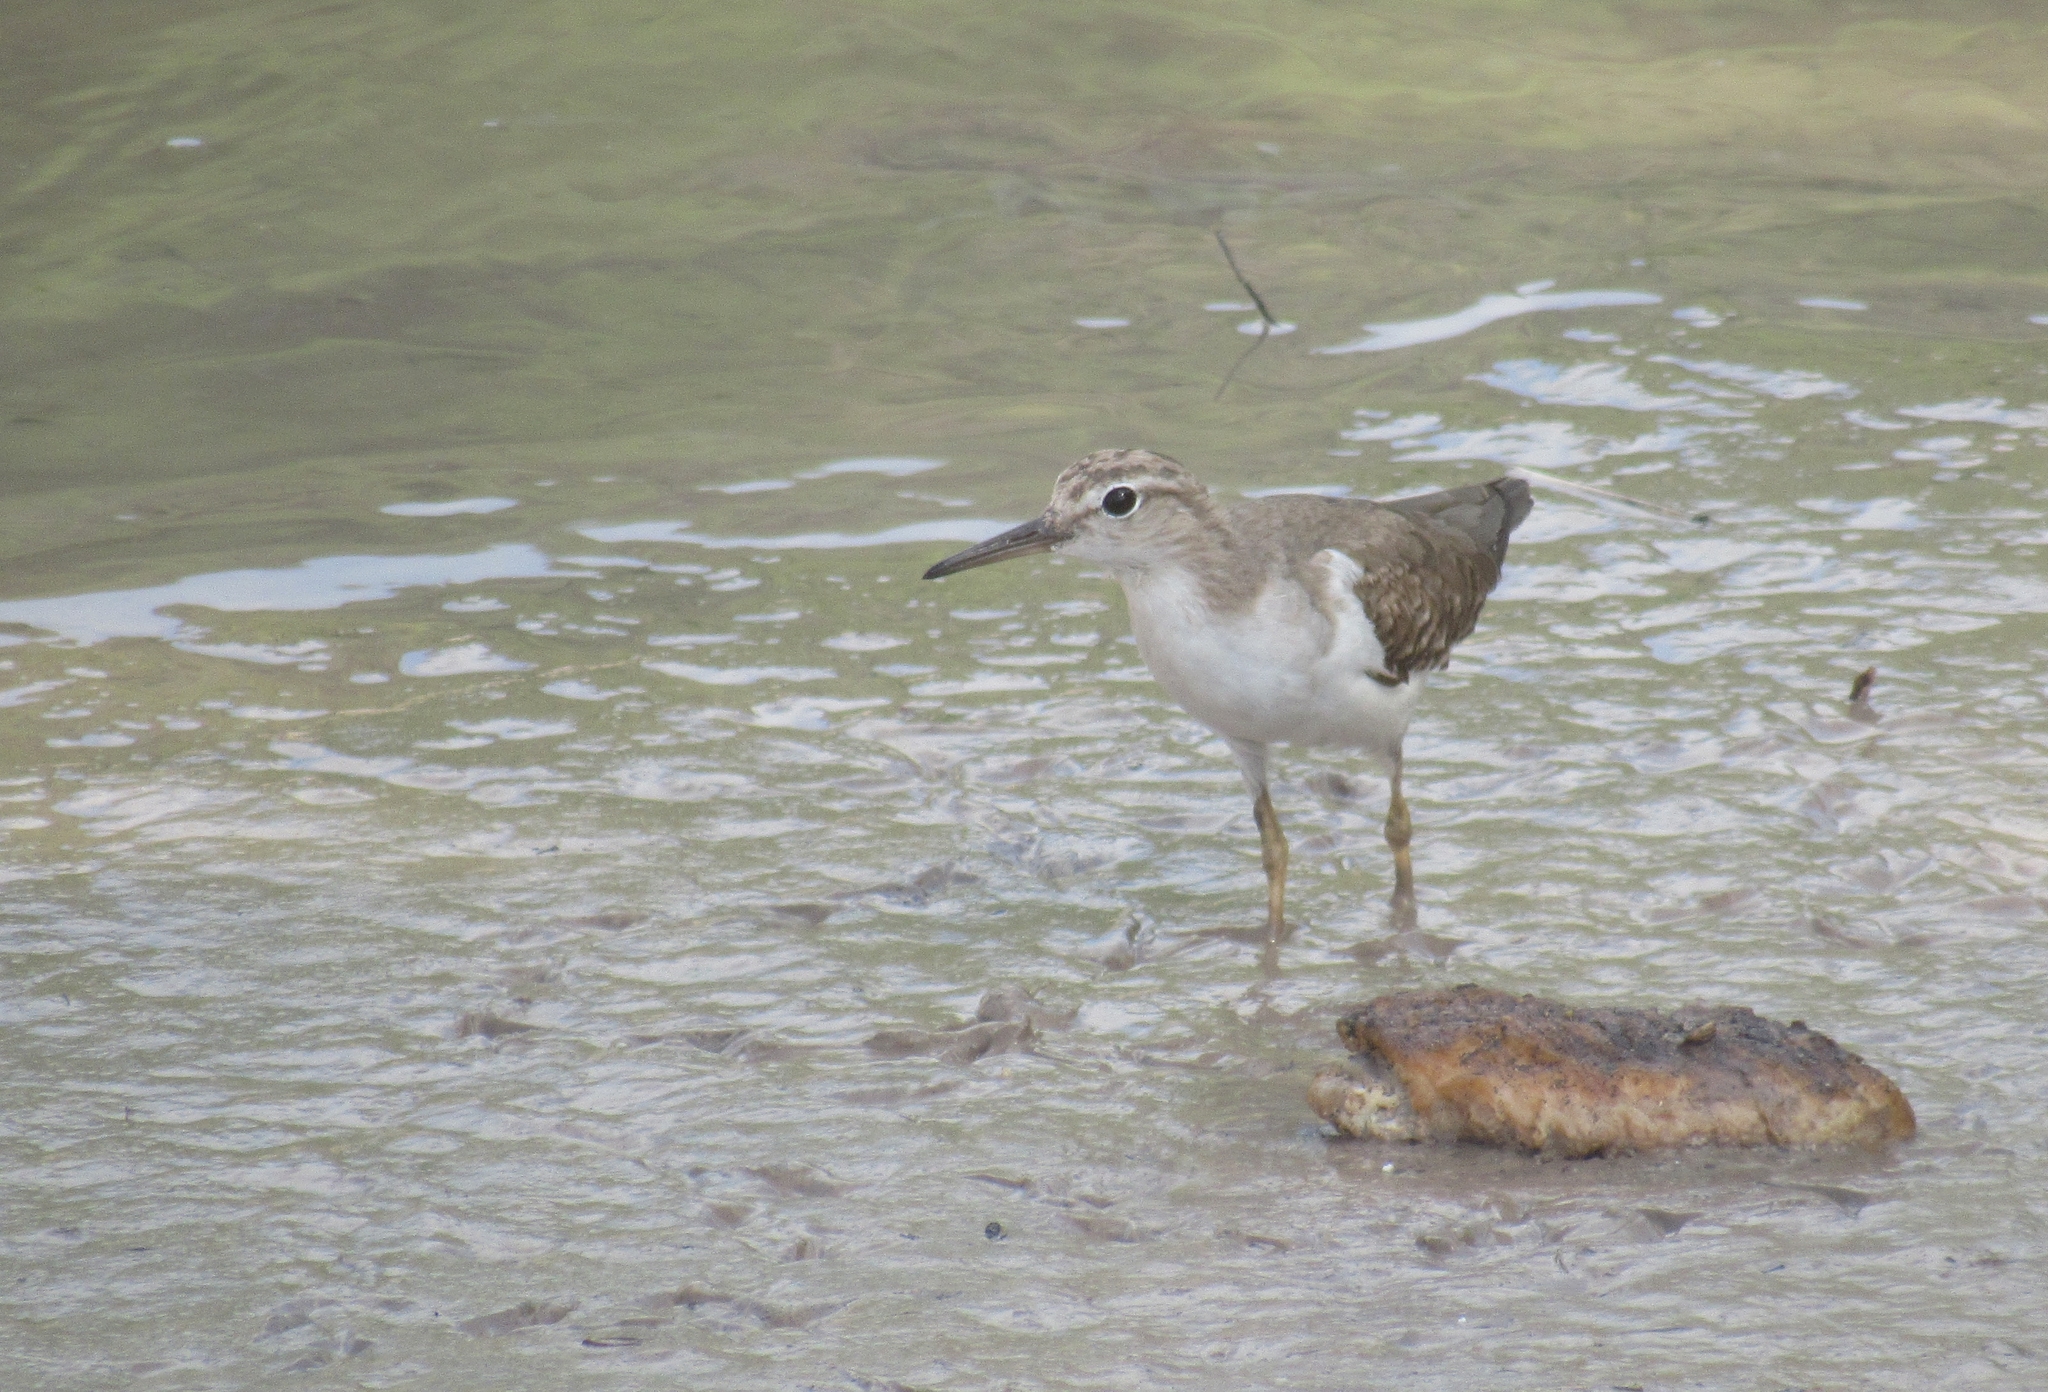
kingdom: Animalia
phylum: Chordata
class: Aves
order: Charadriiformes
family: Scolopacidae
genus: Actitis
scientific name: Actitis macularius
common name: Spotted sandpiper
